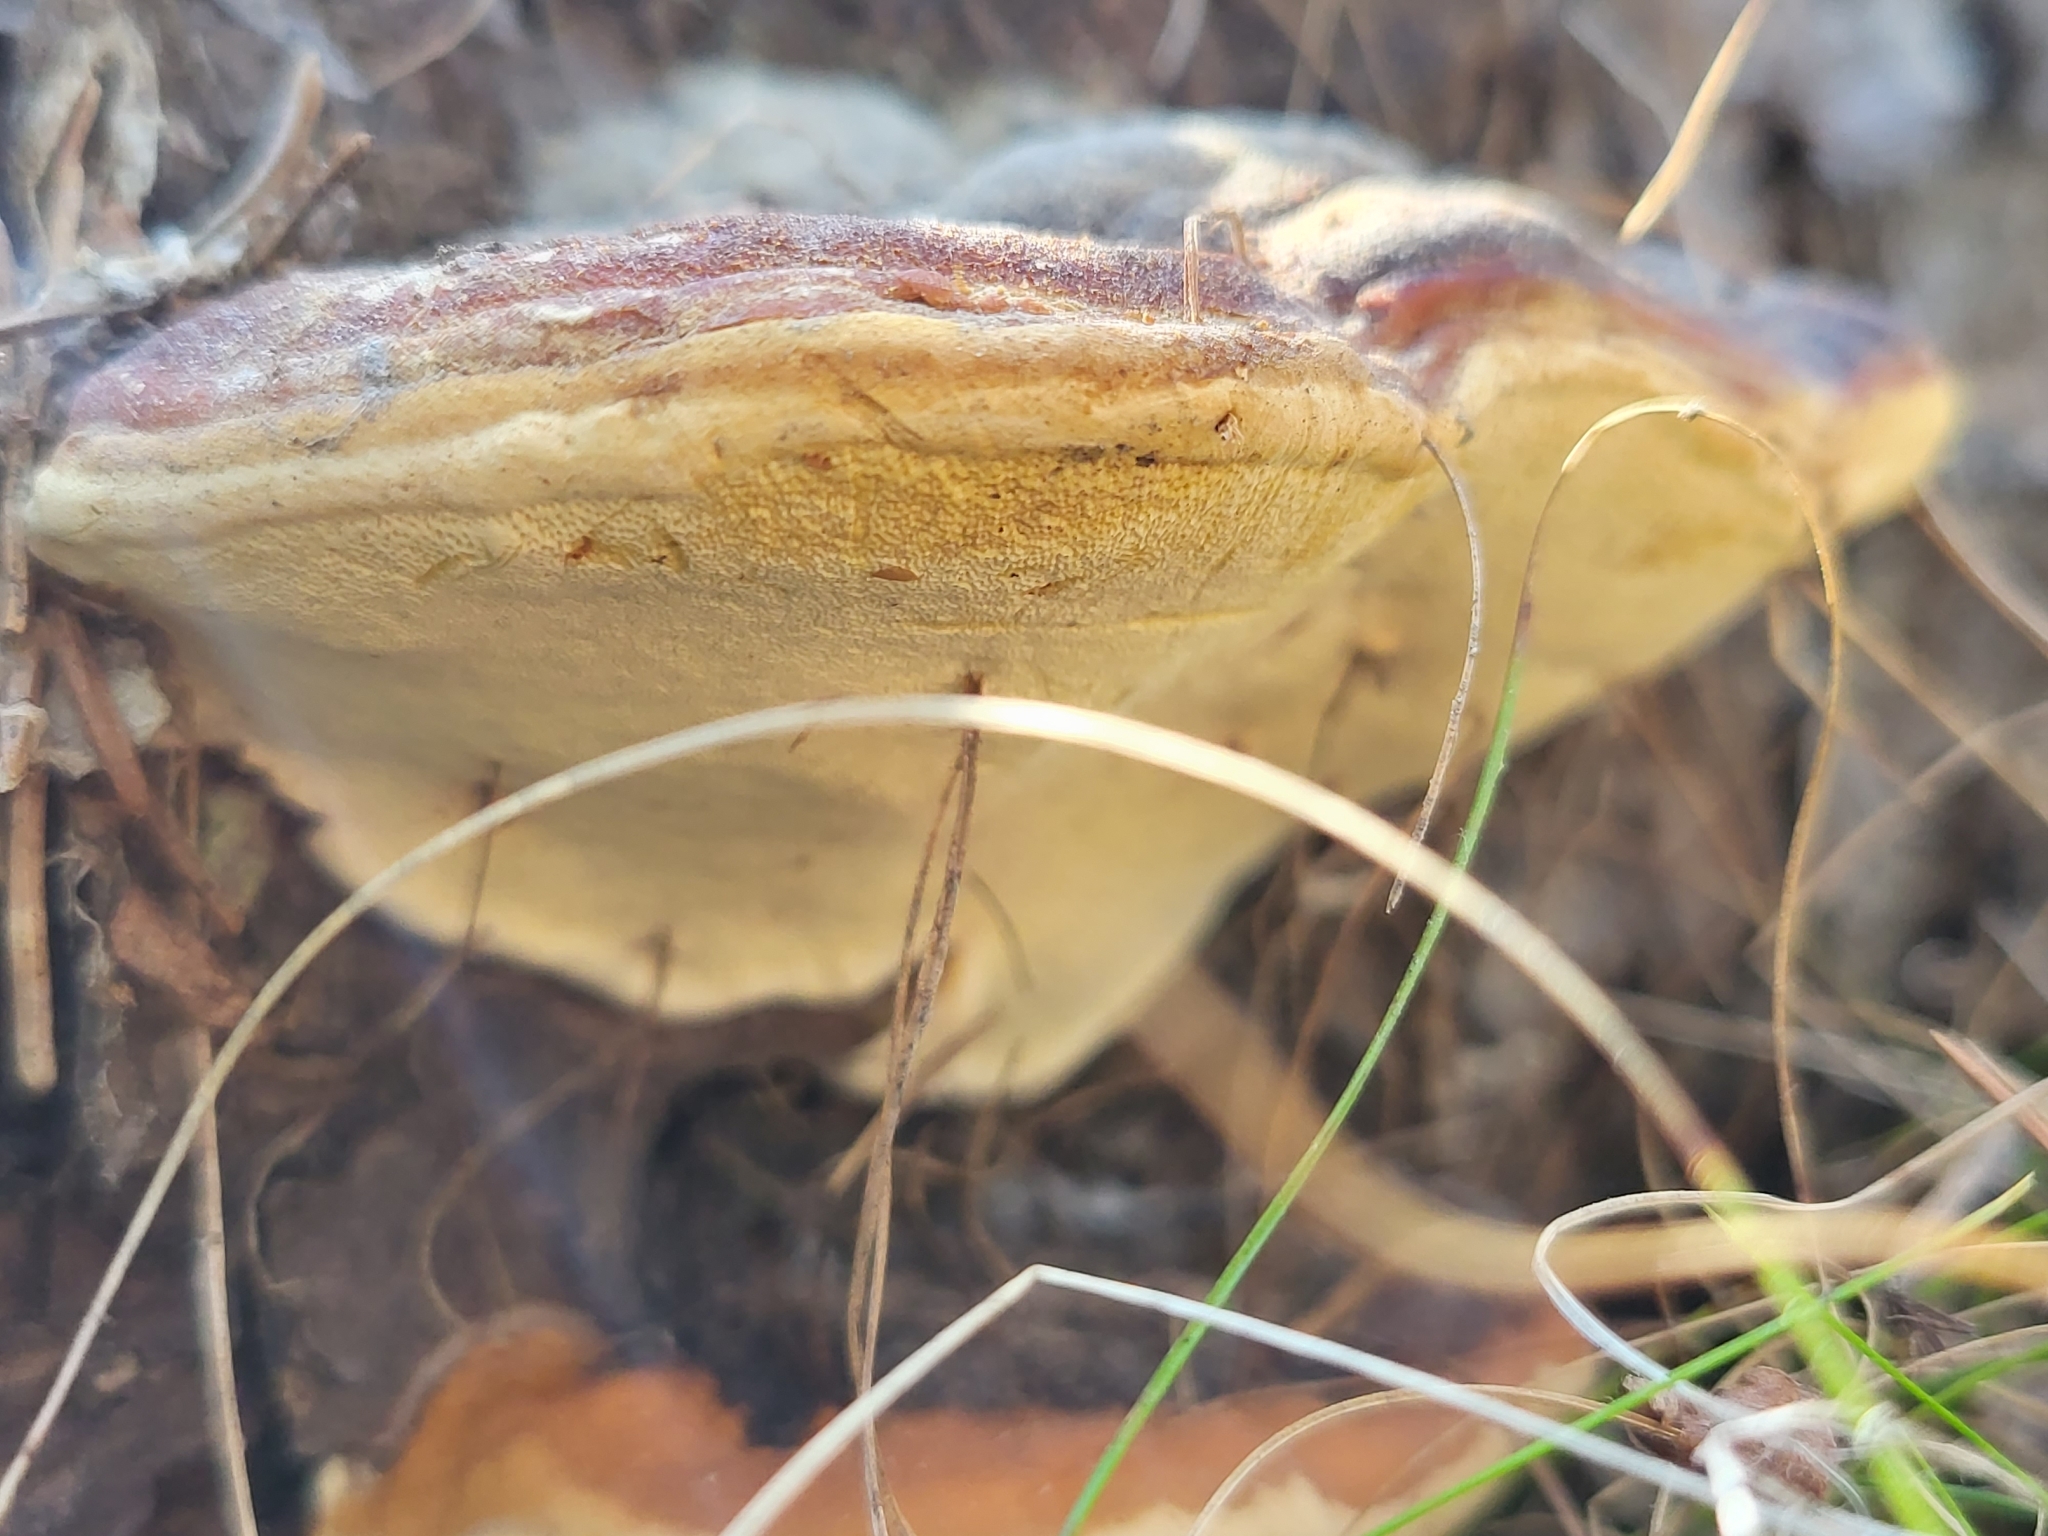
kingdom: Fungi
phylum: Basidiomycota
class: Agaricomycetes
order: Polyporales
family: Fomitopsidaceae
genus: Fomitopsis
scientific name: Fomitopsis mounceae
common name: Northern red belt
